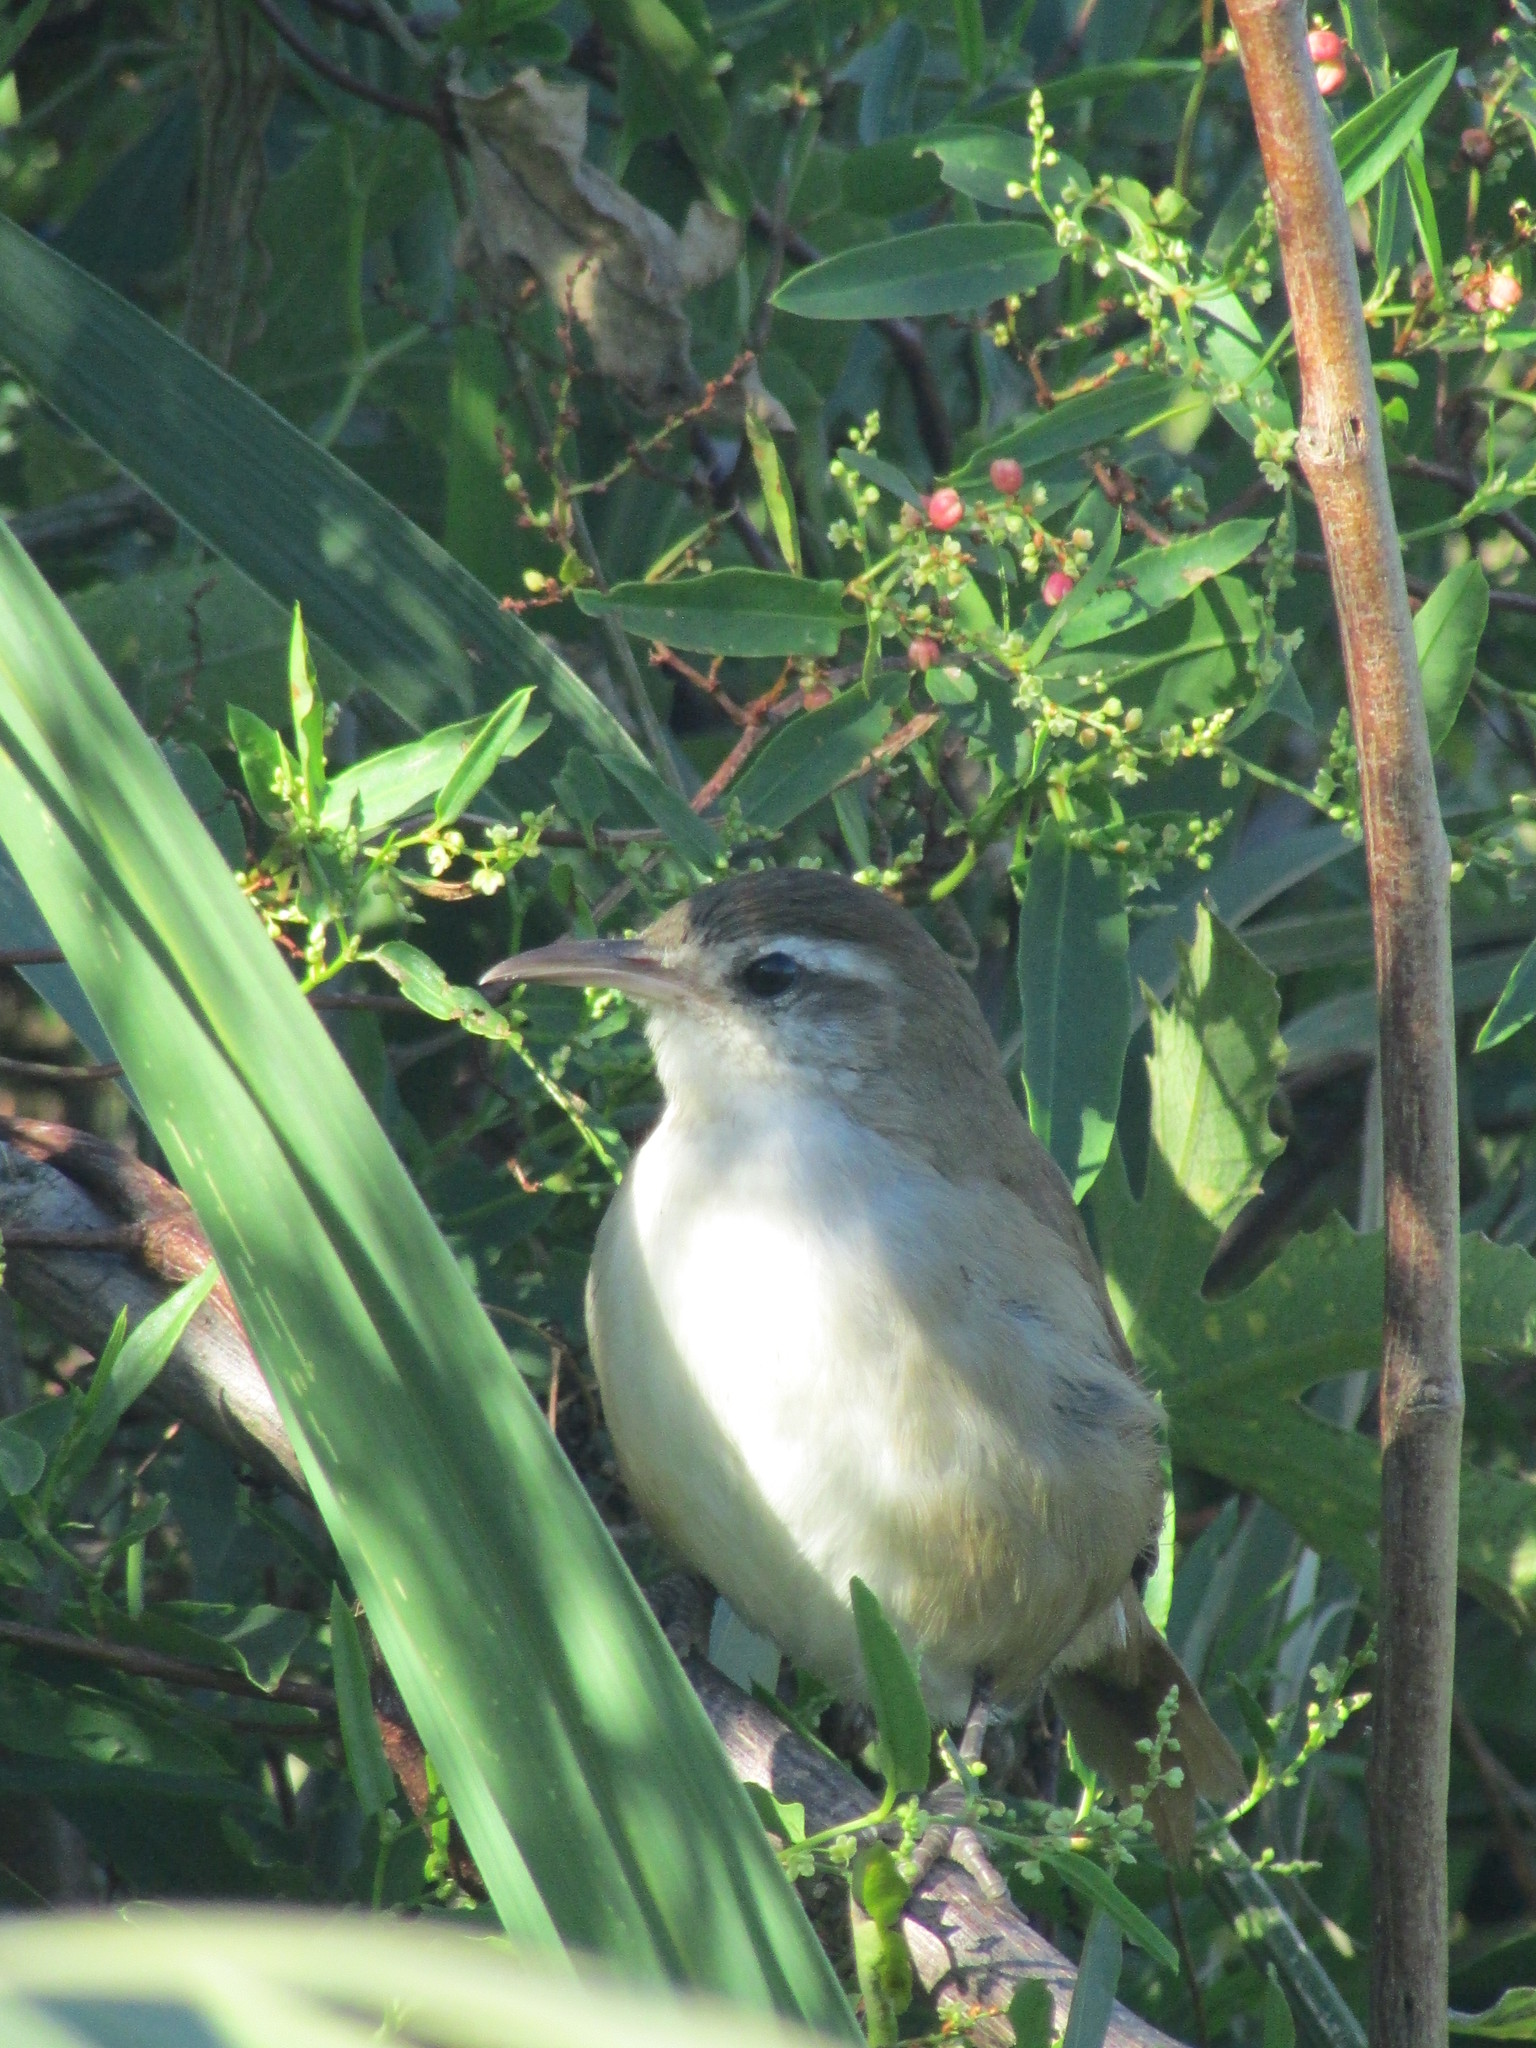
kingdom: Animalia
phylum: Chordata
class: Aves
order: Passeriformes
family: Furnariidae
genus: Limnornis
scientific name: Limnornis curvirostris
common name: Curve-billed reedhaunter
